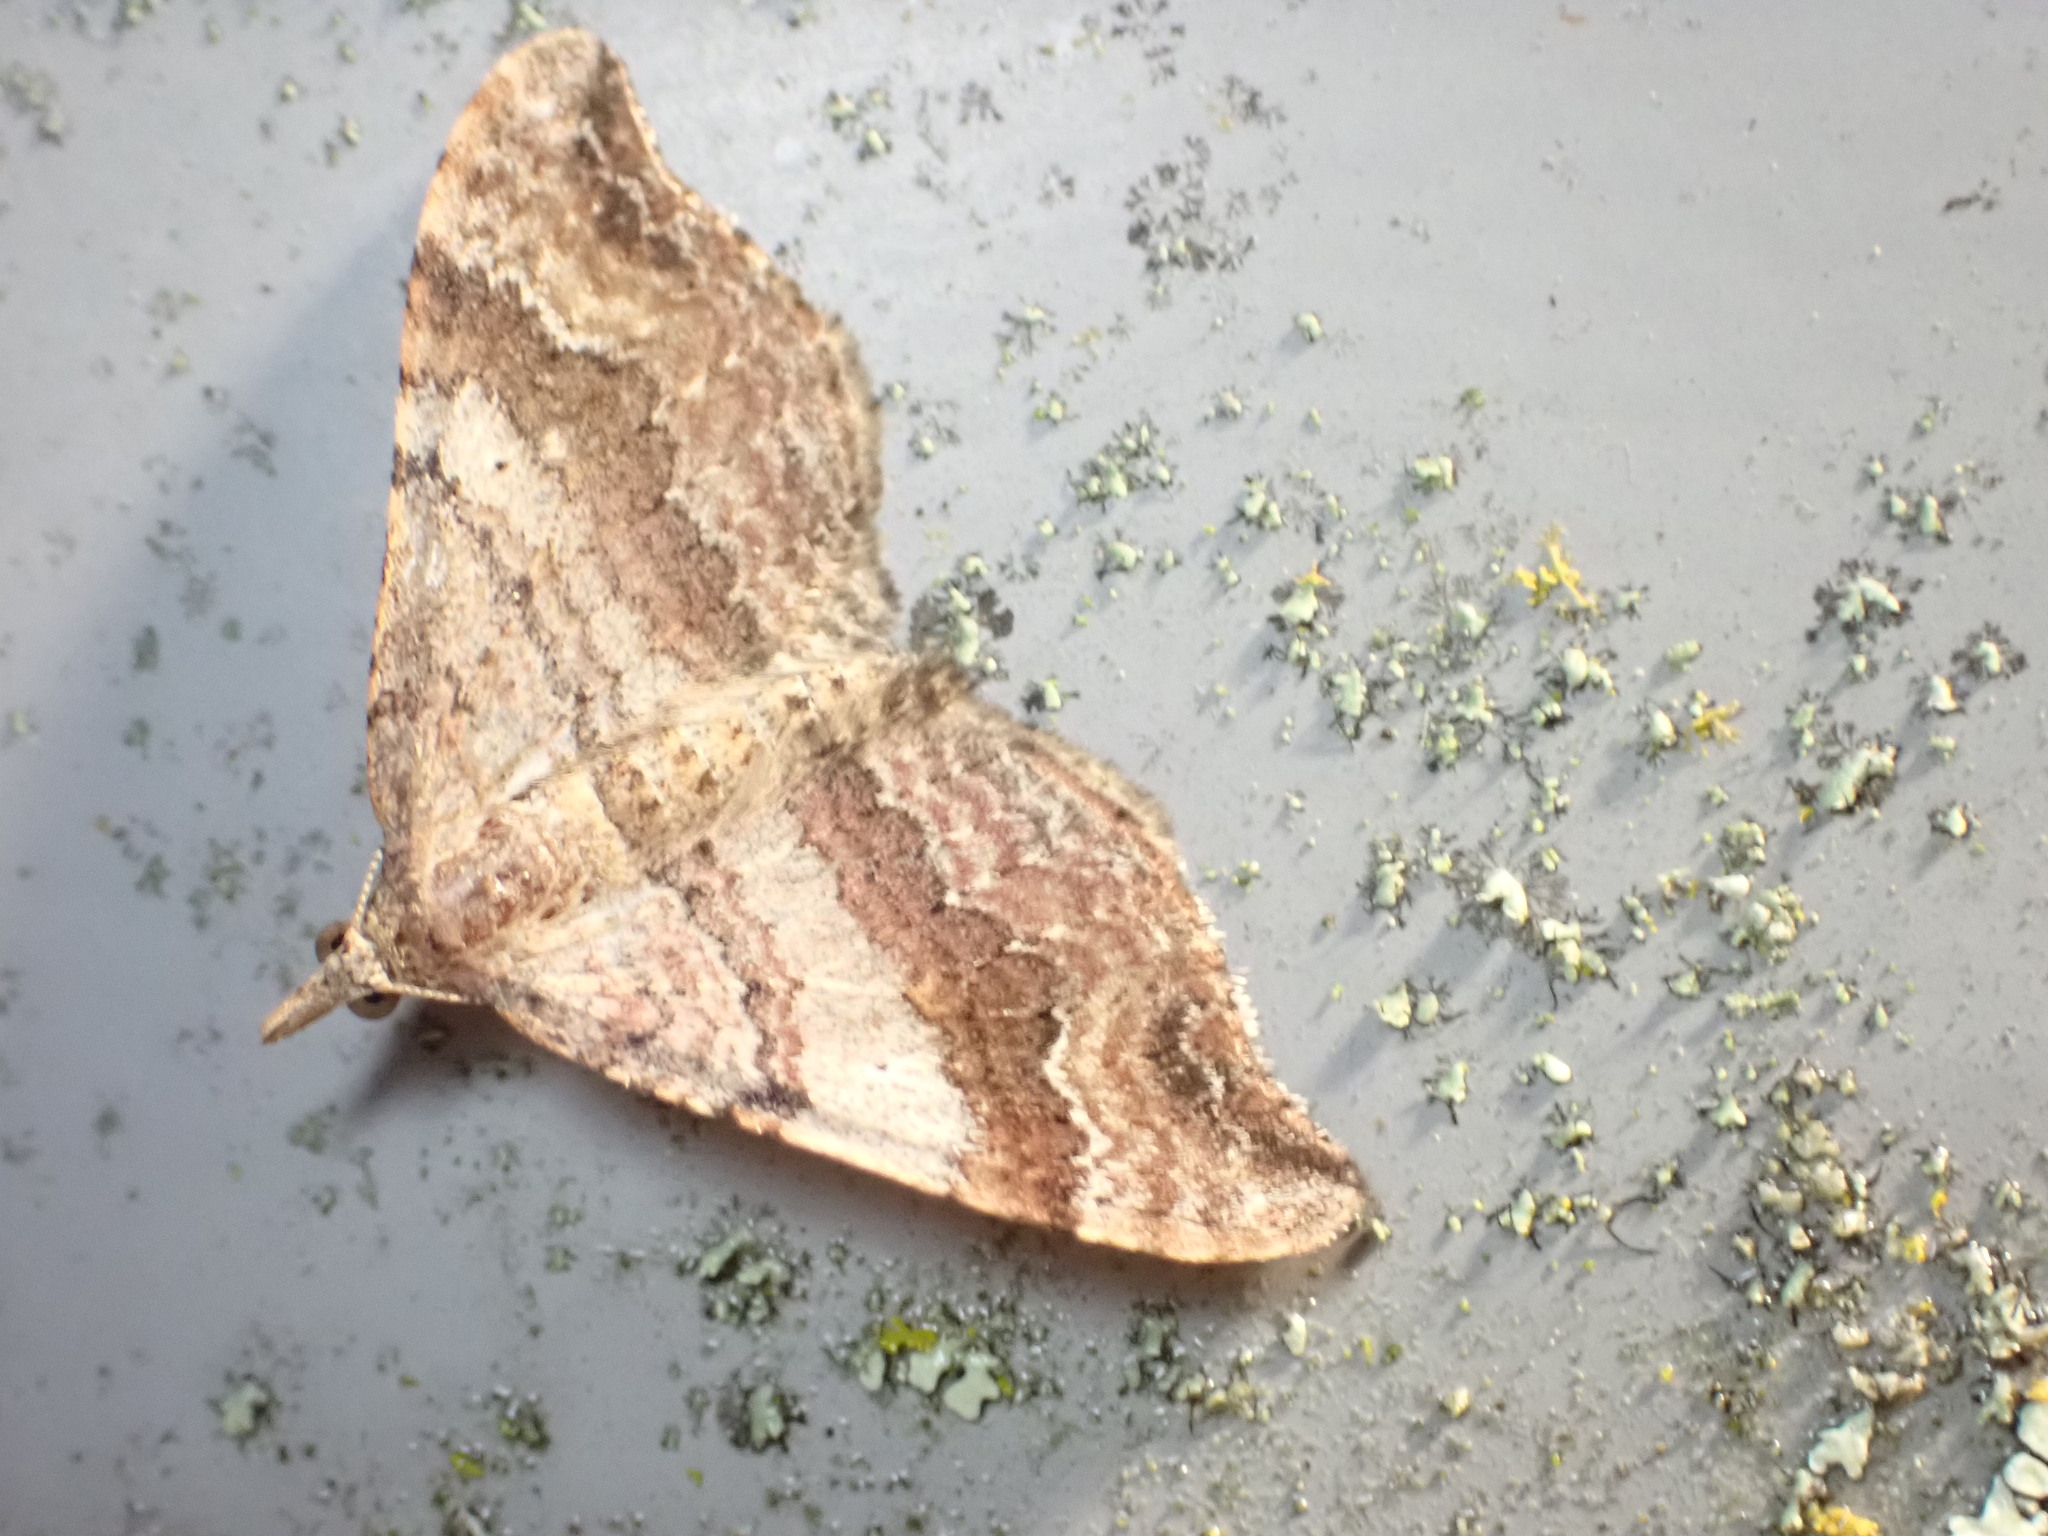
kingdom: Animalia
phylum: Arthropoda
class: Insecta
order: Lepidoptera
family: Geometridae
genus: Homodotis
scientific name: Homodotis megaspilata
